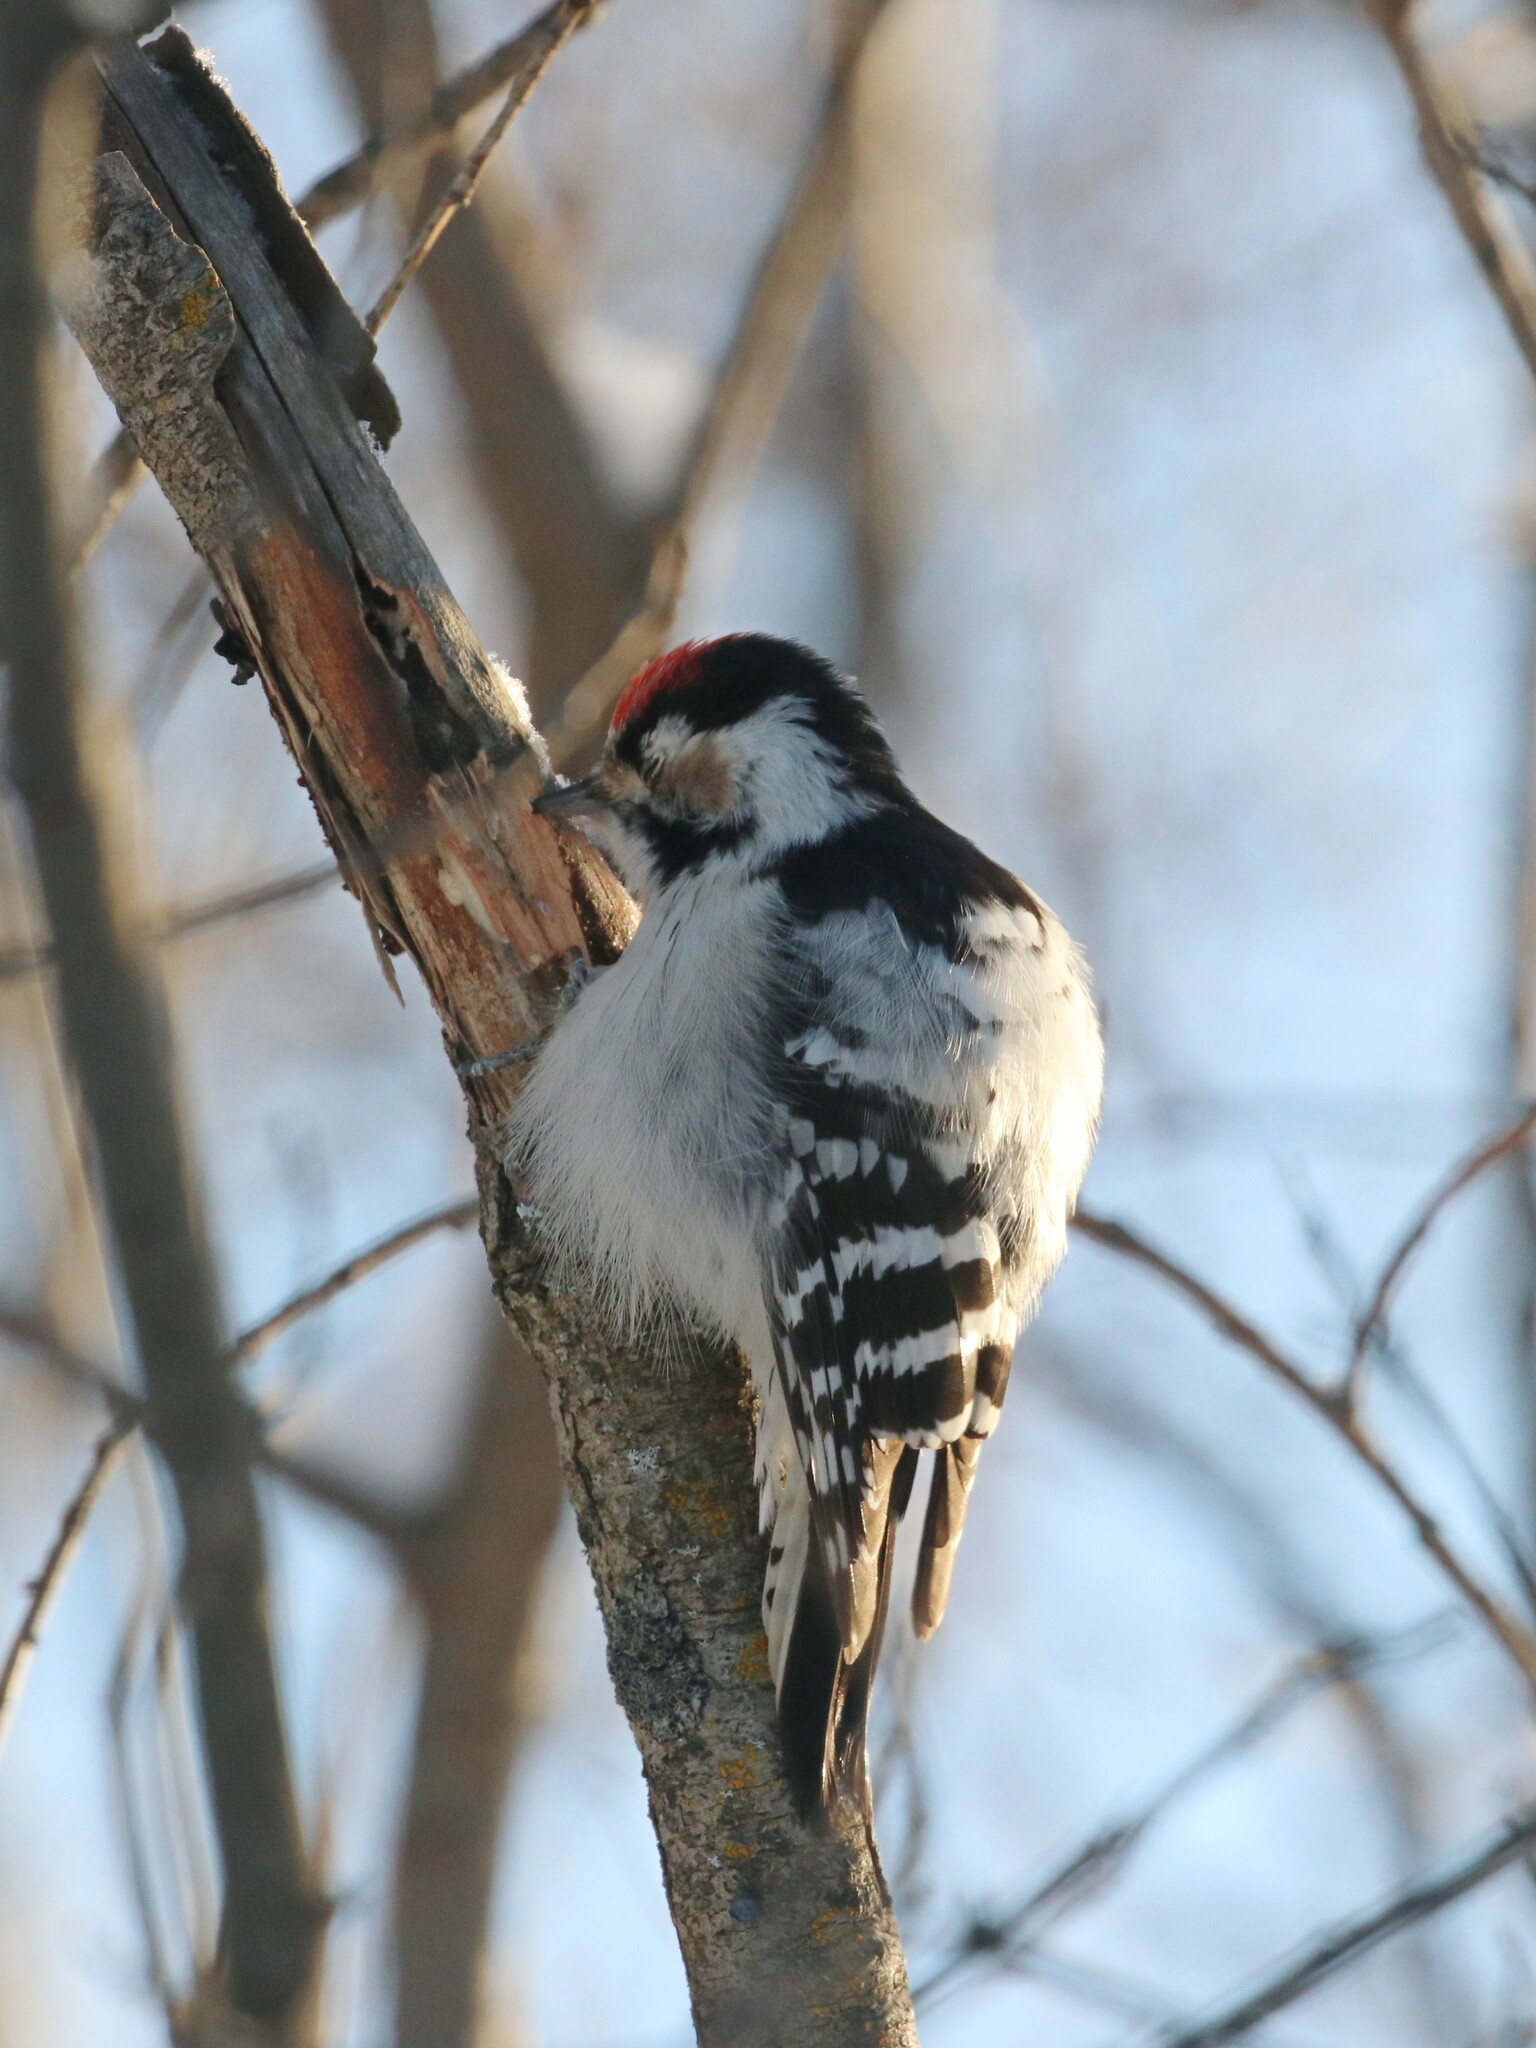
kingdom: Animalia
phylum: Chordata
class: Aves
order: Piciformes
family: Picidae
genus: Dryobates
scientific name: Dryobates minor
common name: Lesser spotted woodpecker
